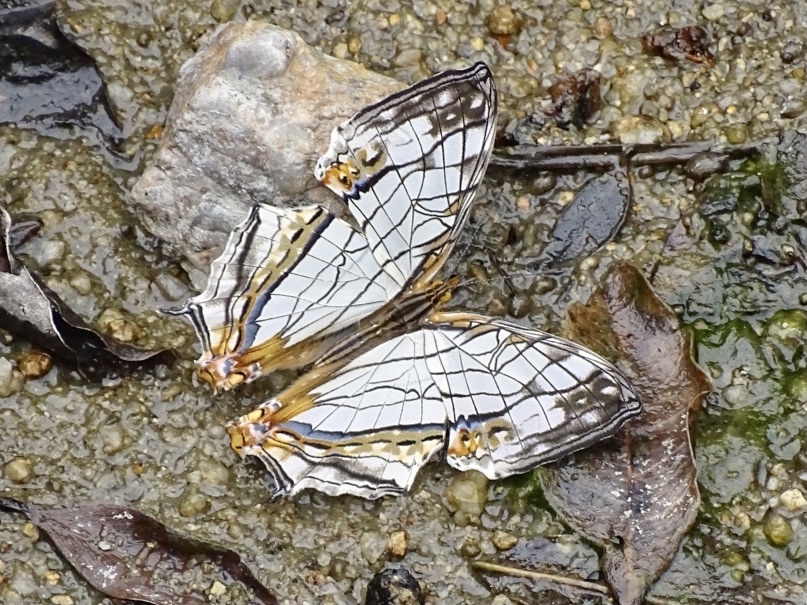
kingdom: Animalia
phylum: Arthropoda
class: Insecta
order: Lepidoptera
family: Nymphalidae
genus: Cyrestis
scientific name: Cyrestis thyodamas
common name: Common mapwing
